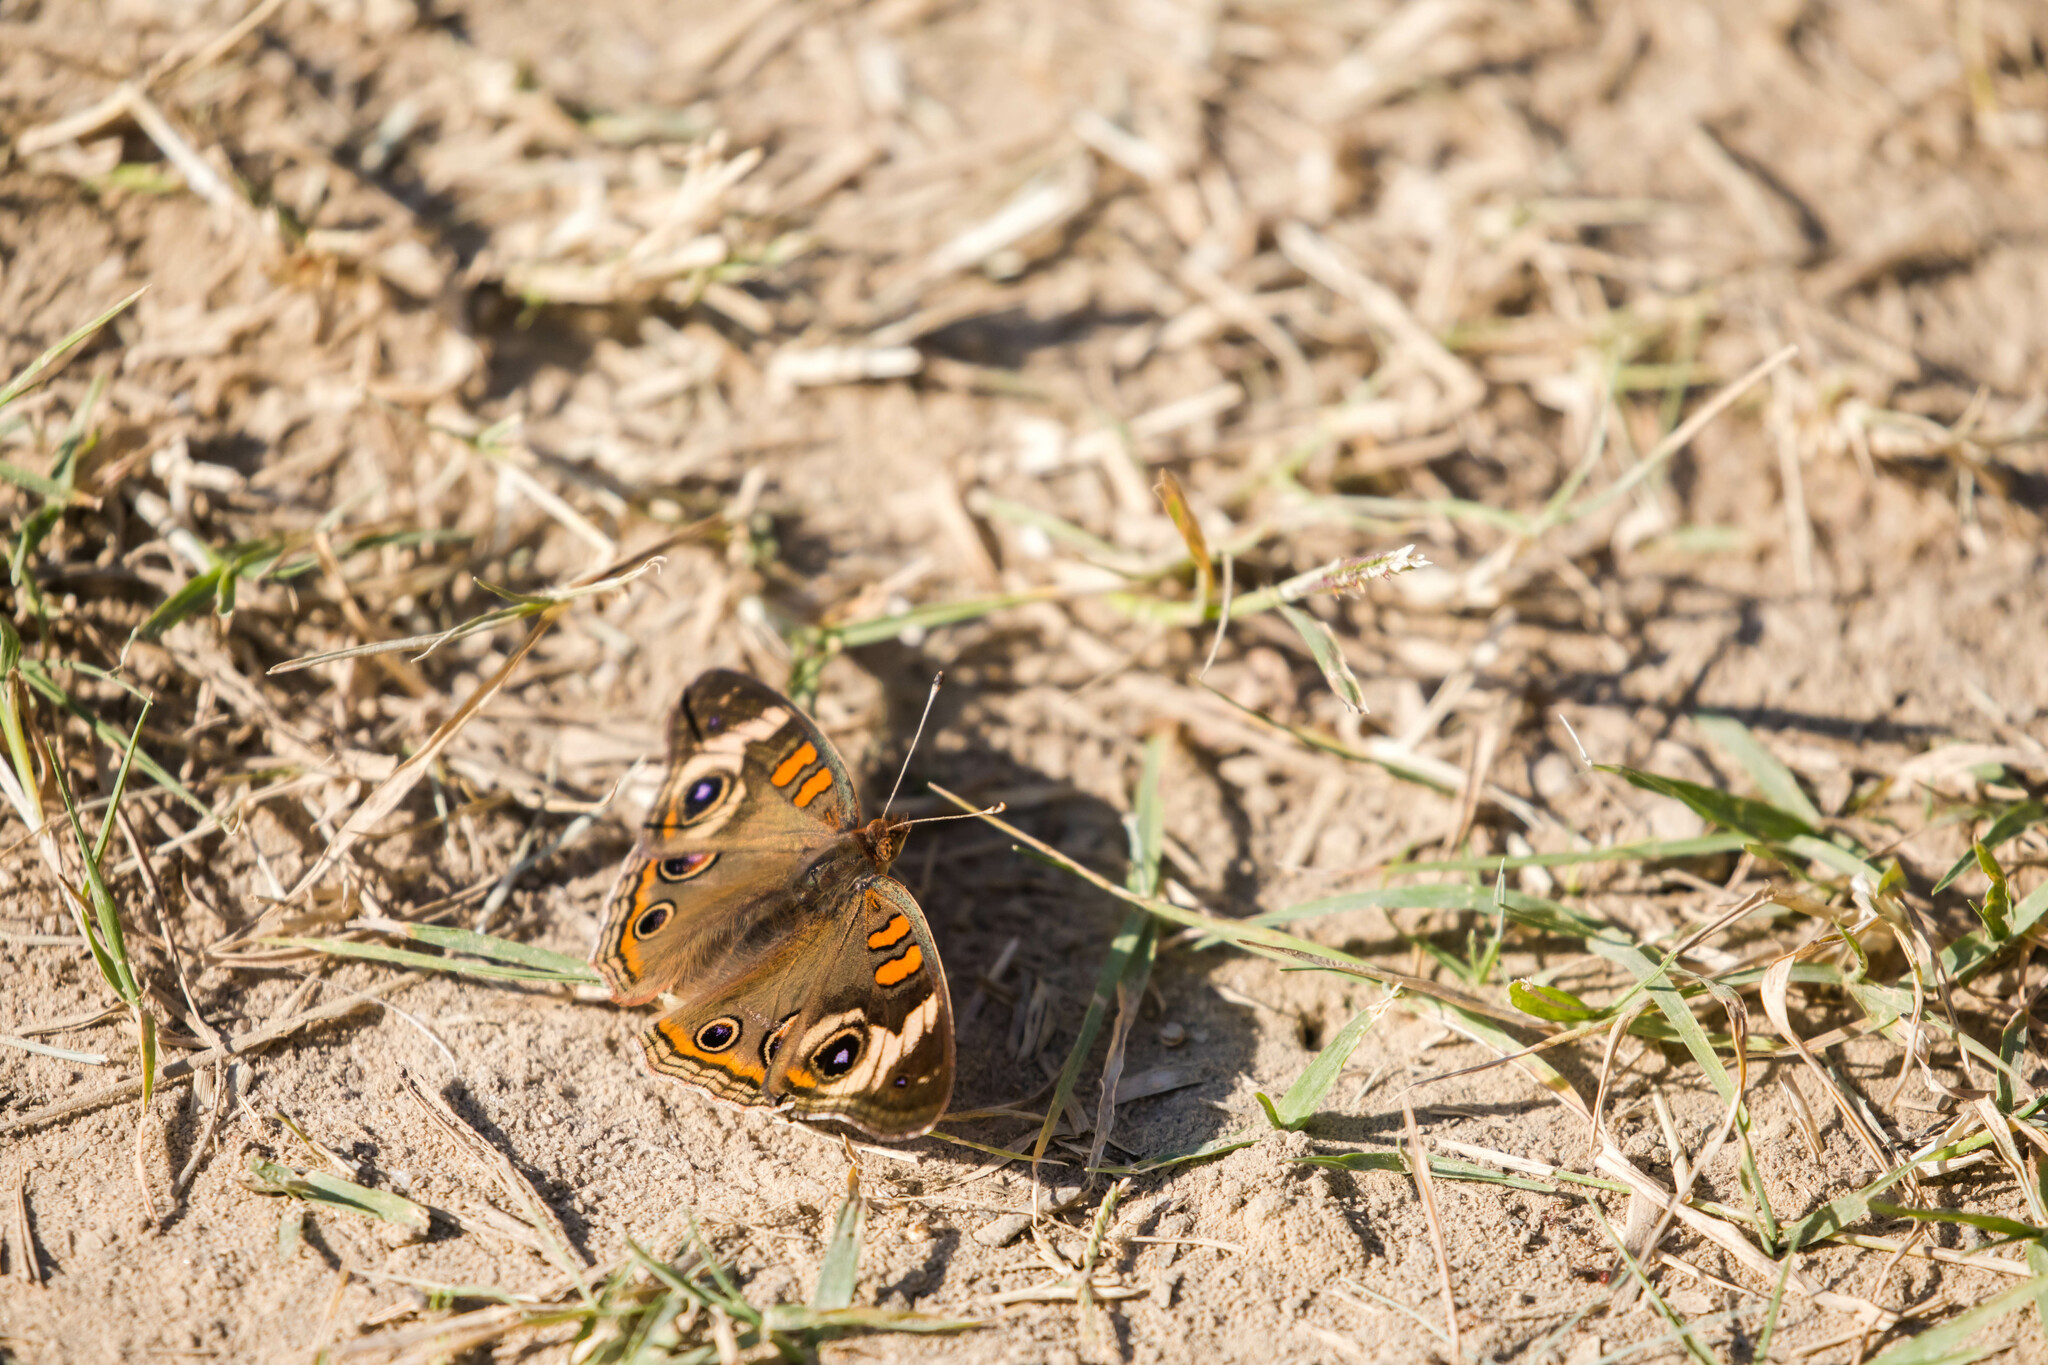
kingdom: Animalia
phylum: Arthropoda
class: Insecta
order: Lepidoptera
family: Nymphalidae
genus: Junonia
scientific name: Junonia coenia
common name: Common buckeye
